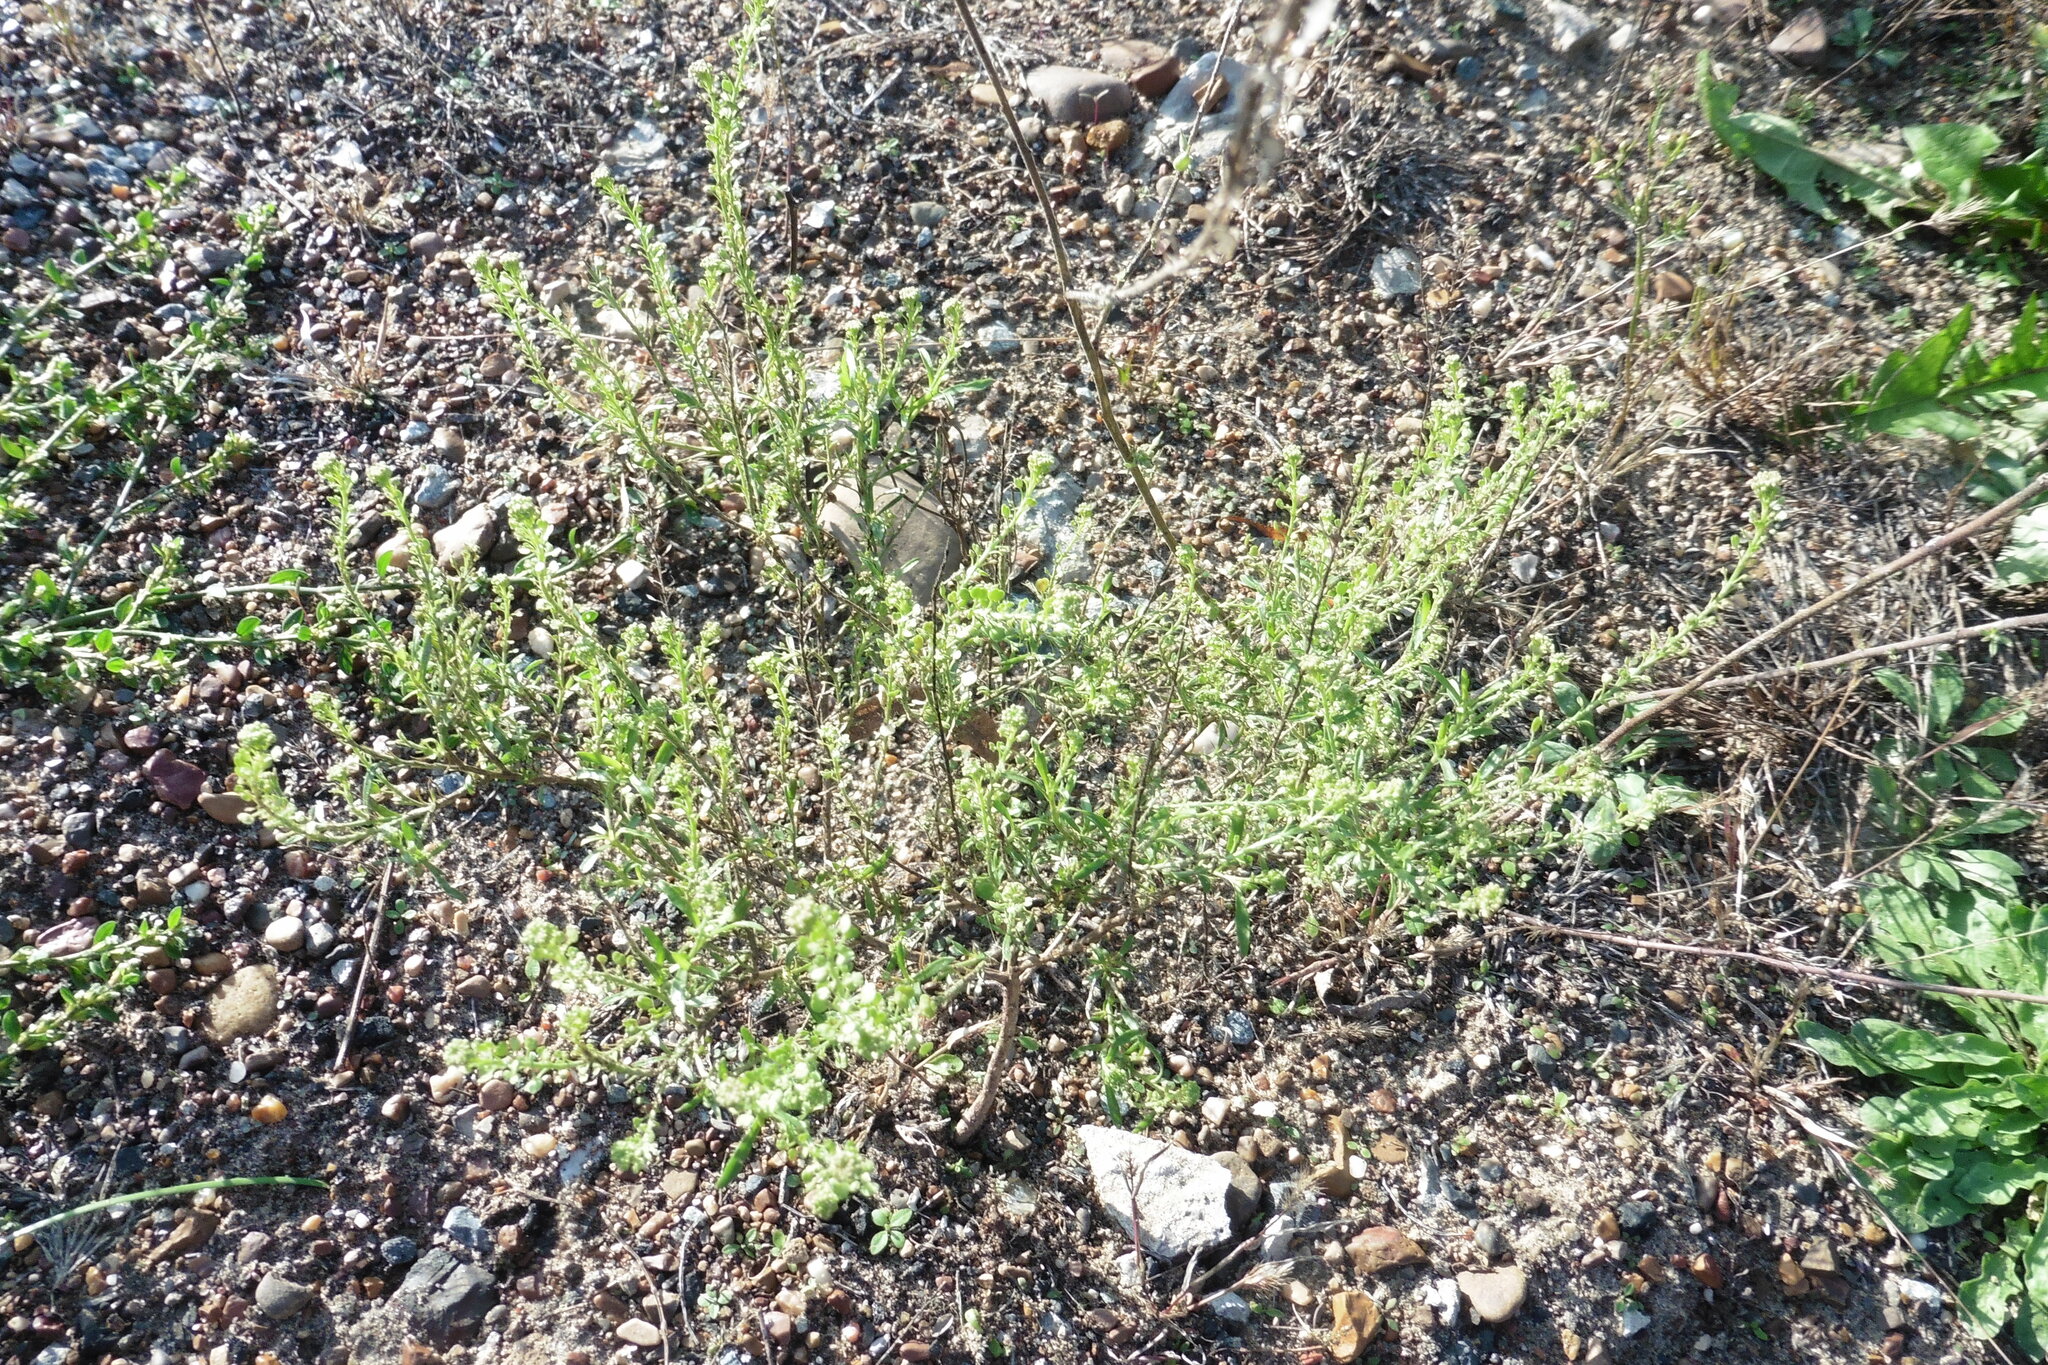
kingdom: Plantae
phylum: Tracheophyta
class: Magnoliopsida
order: Brassicales
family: Brassicaceae
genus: Lepidium
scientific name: Lepidium densiflorum
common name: Miner's pepperwort
